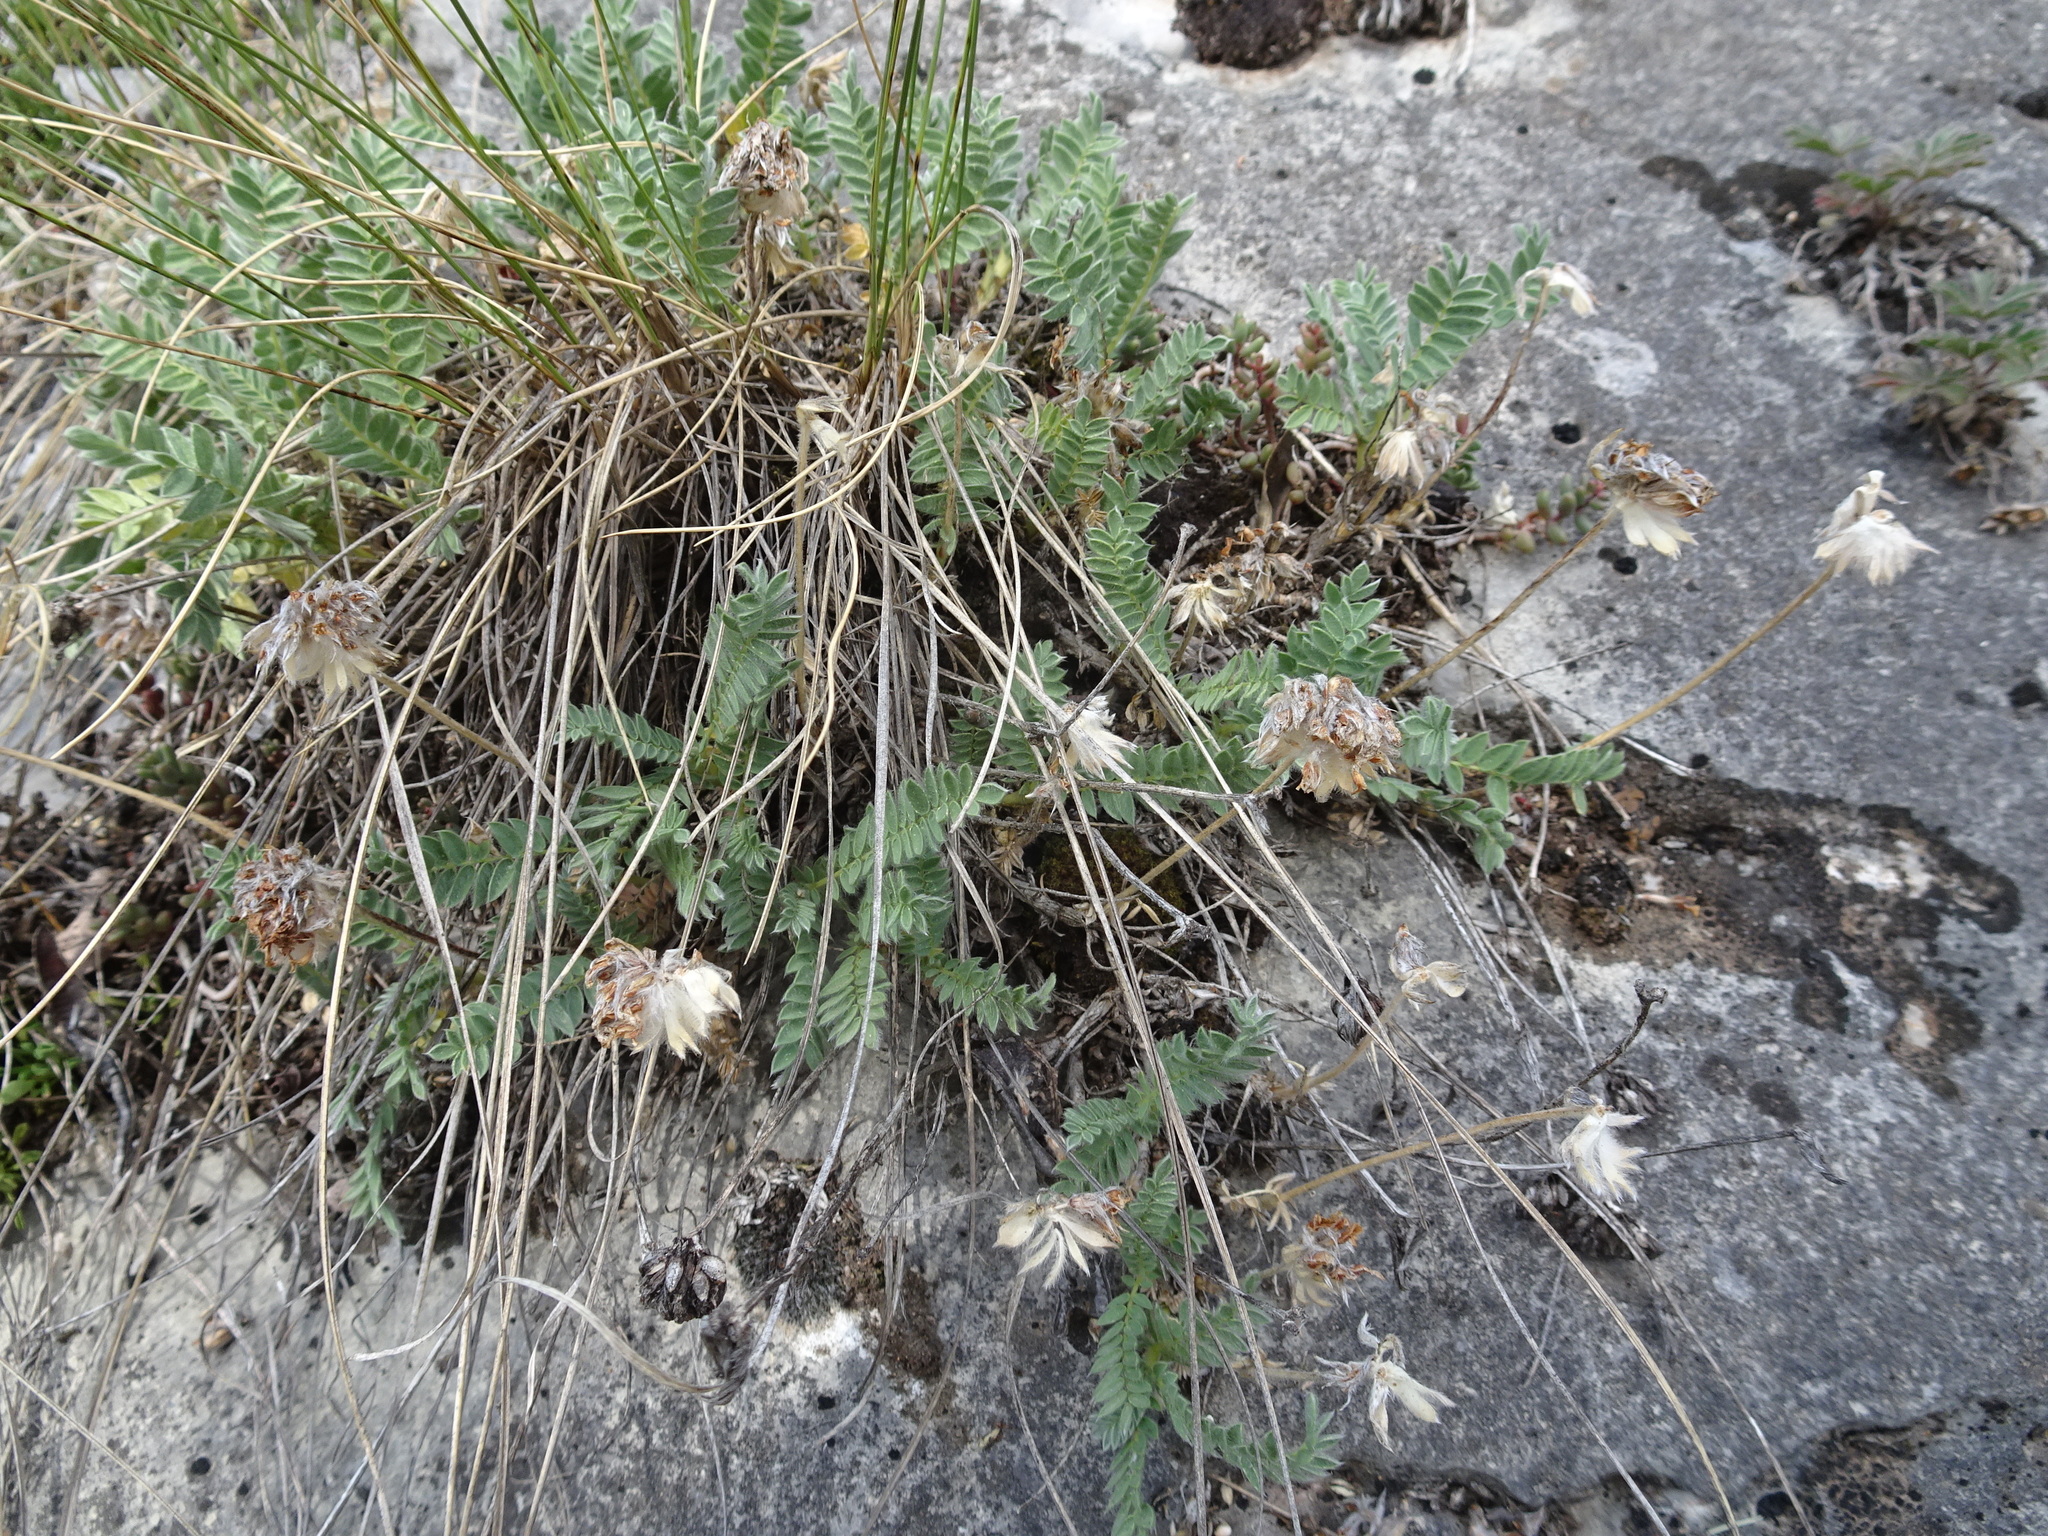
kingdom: Plantae
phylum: Tracheophyta
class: Magnoliopsida
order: Fabales
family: Fabaceae
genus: Anthyllis
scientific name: Anthyllis montana
